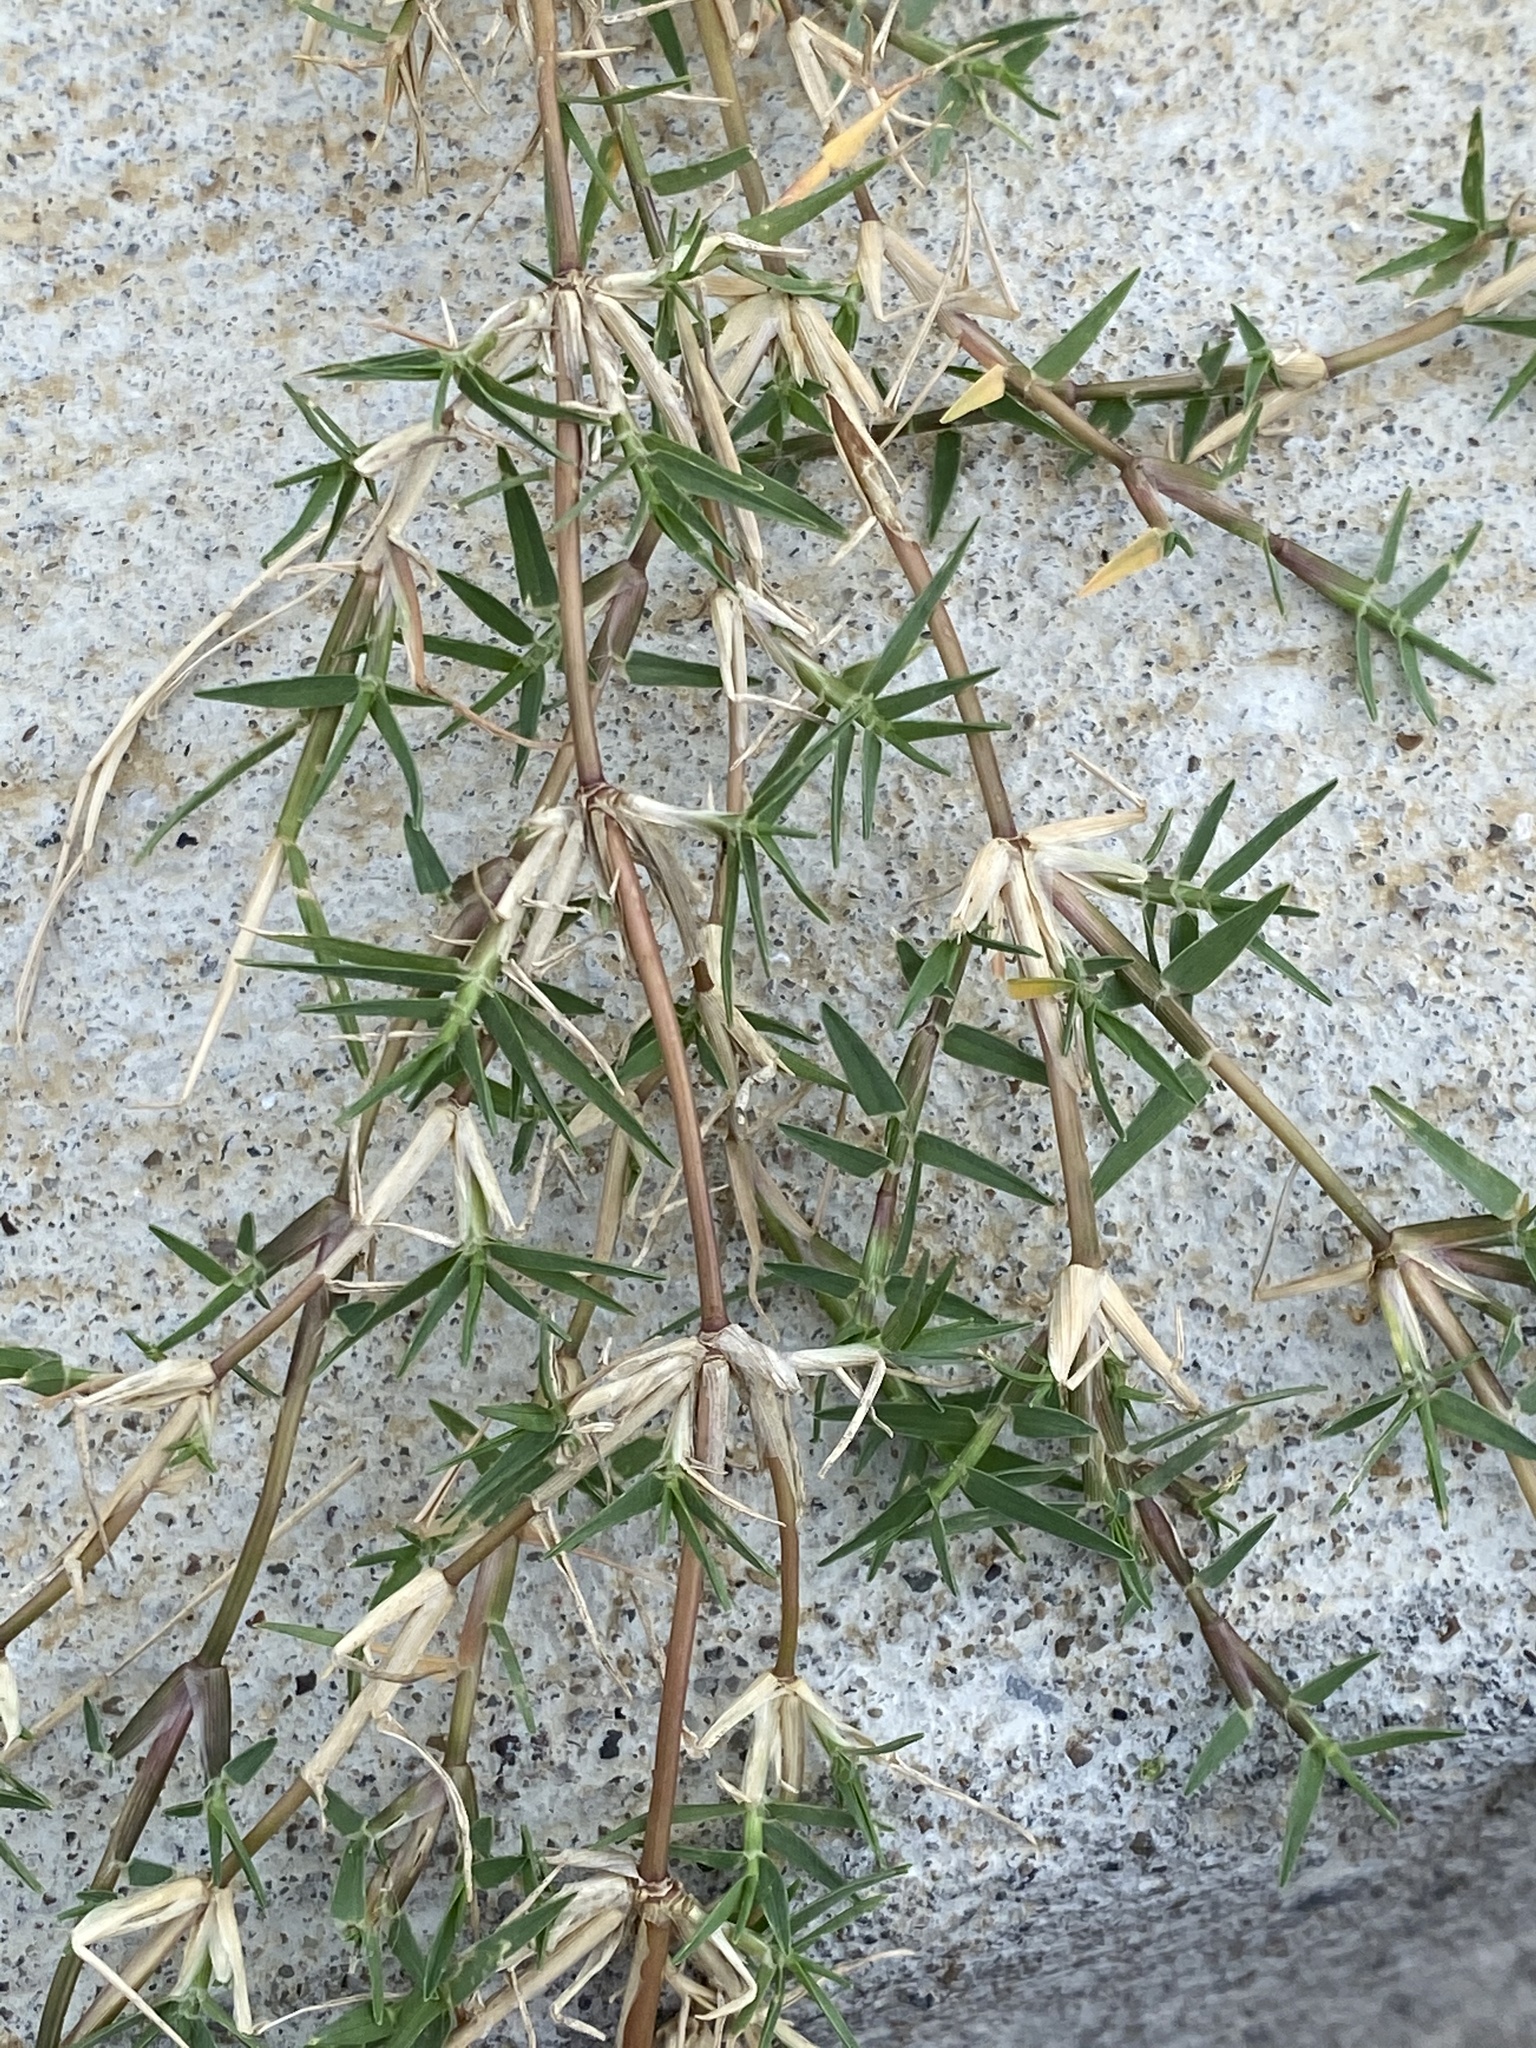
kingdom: Plantae
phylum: Tracheophyta
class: Liliopsida
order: Poales
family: Poaceae
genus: Cynodon
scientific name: Cynodon dactylon
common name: Bermuda grass
